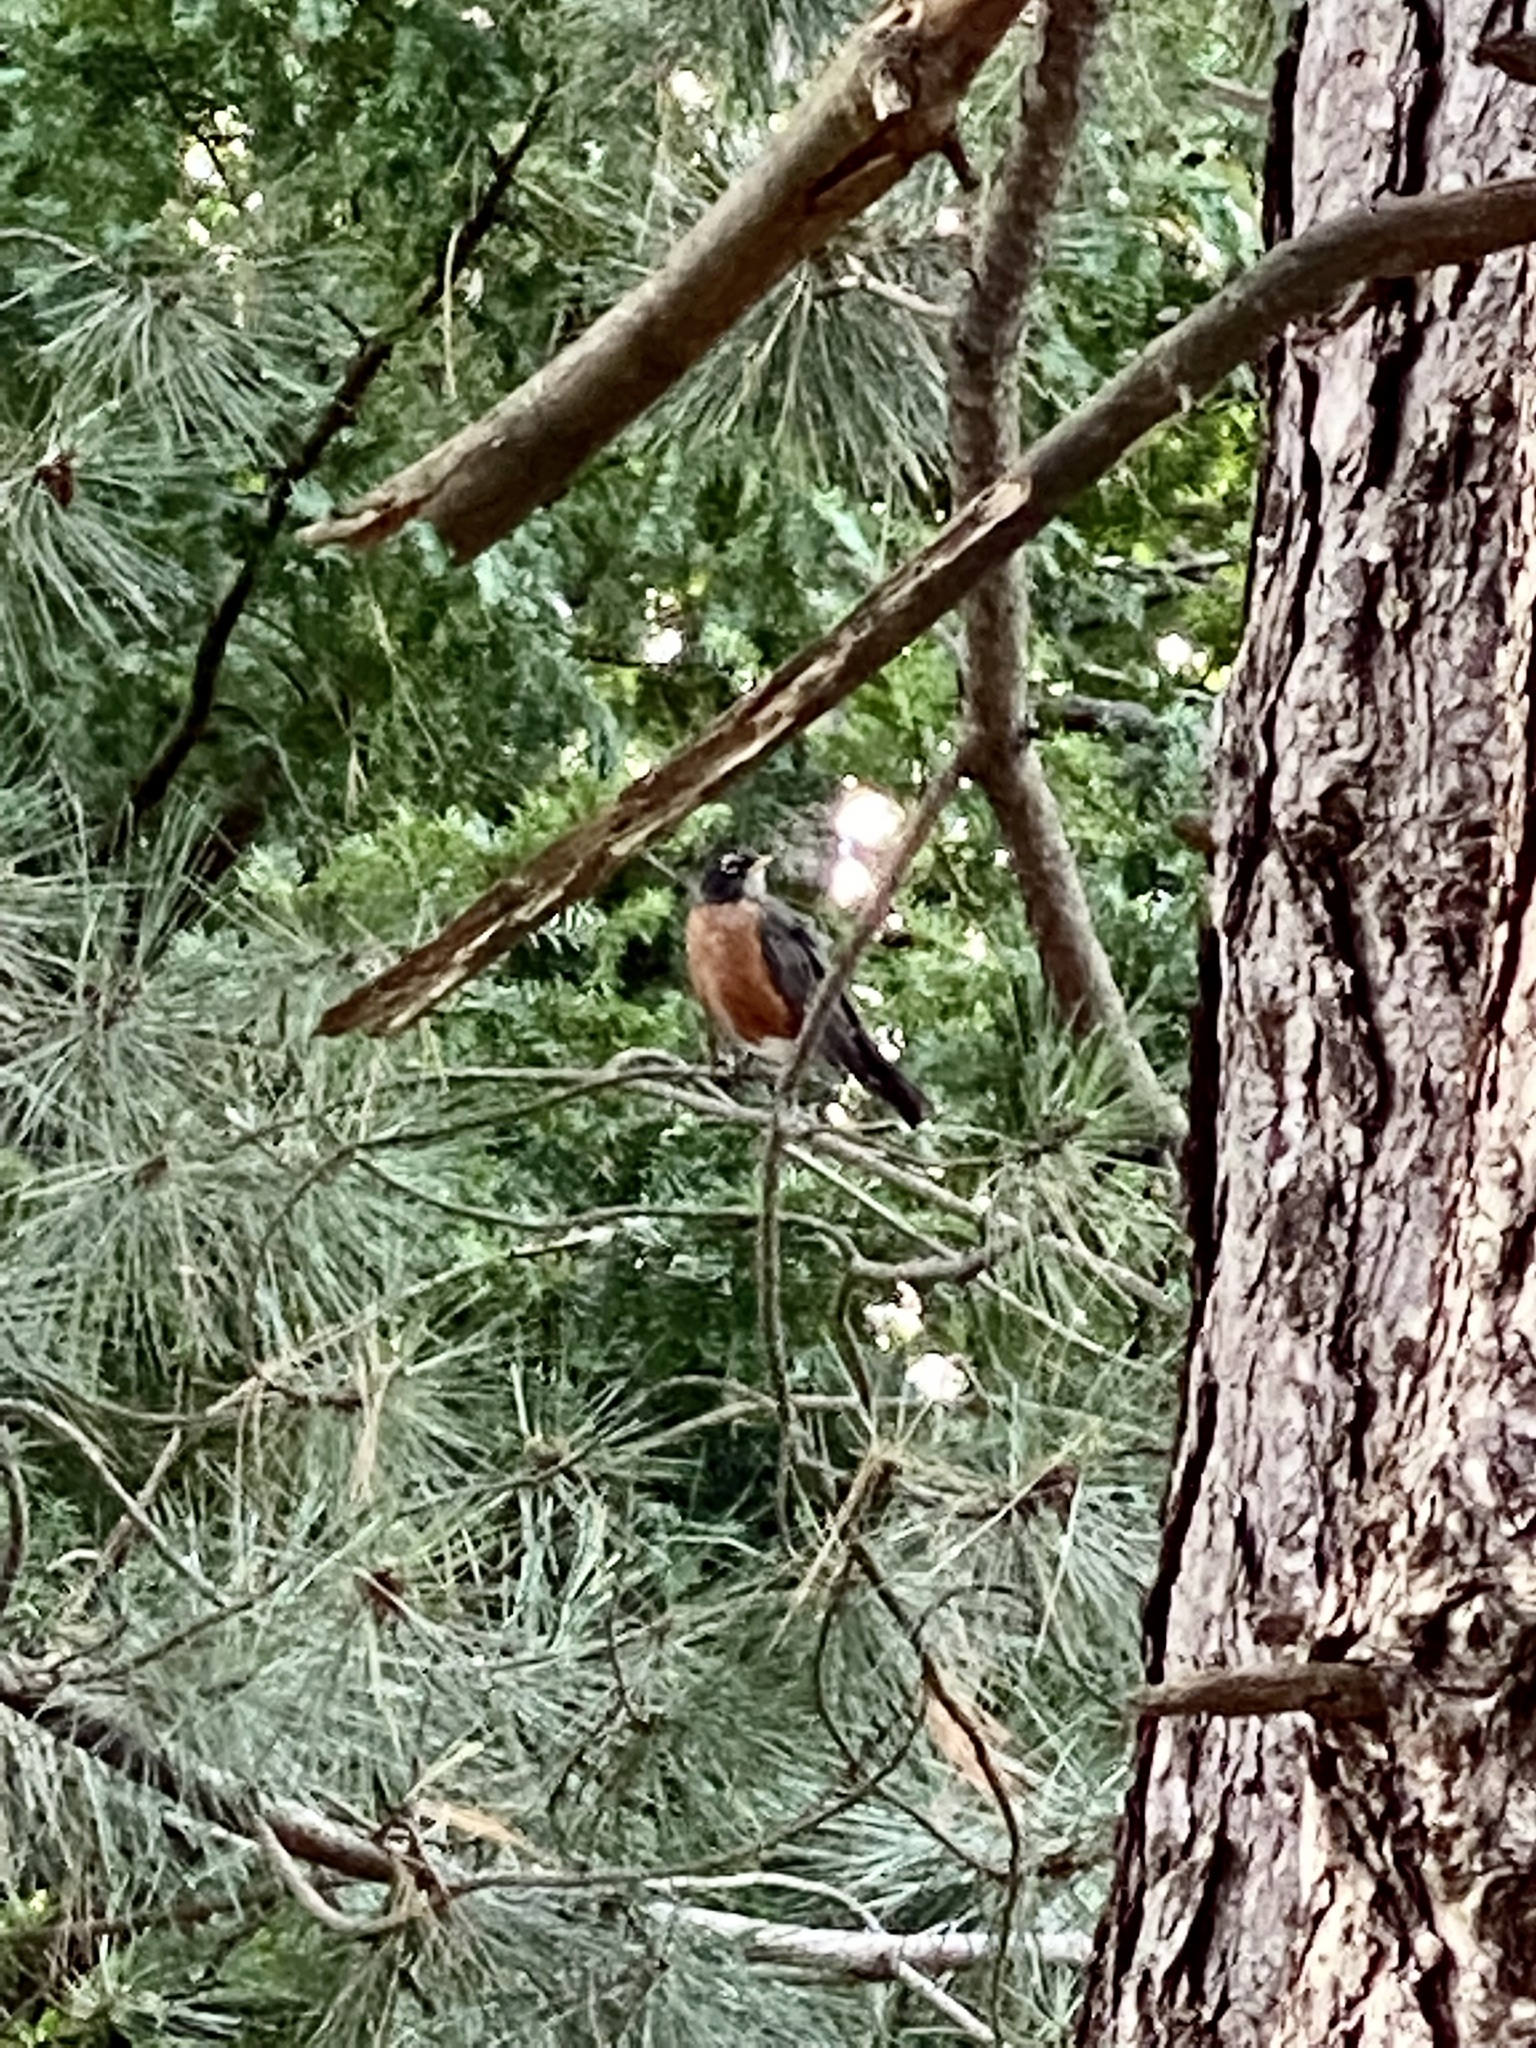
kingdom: Animalia
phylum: Chordata
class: Aves
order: Passeriformes
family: Turdidae
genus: Turdus
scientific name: Turdus migratorius
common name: American robin
